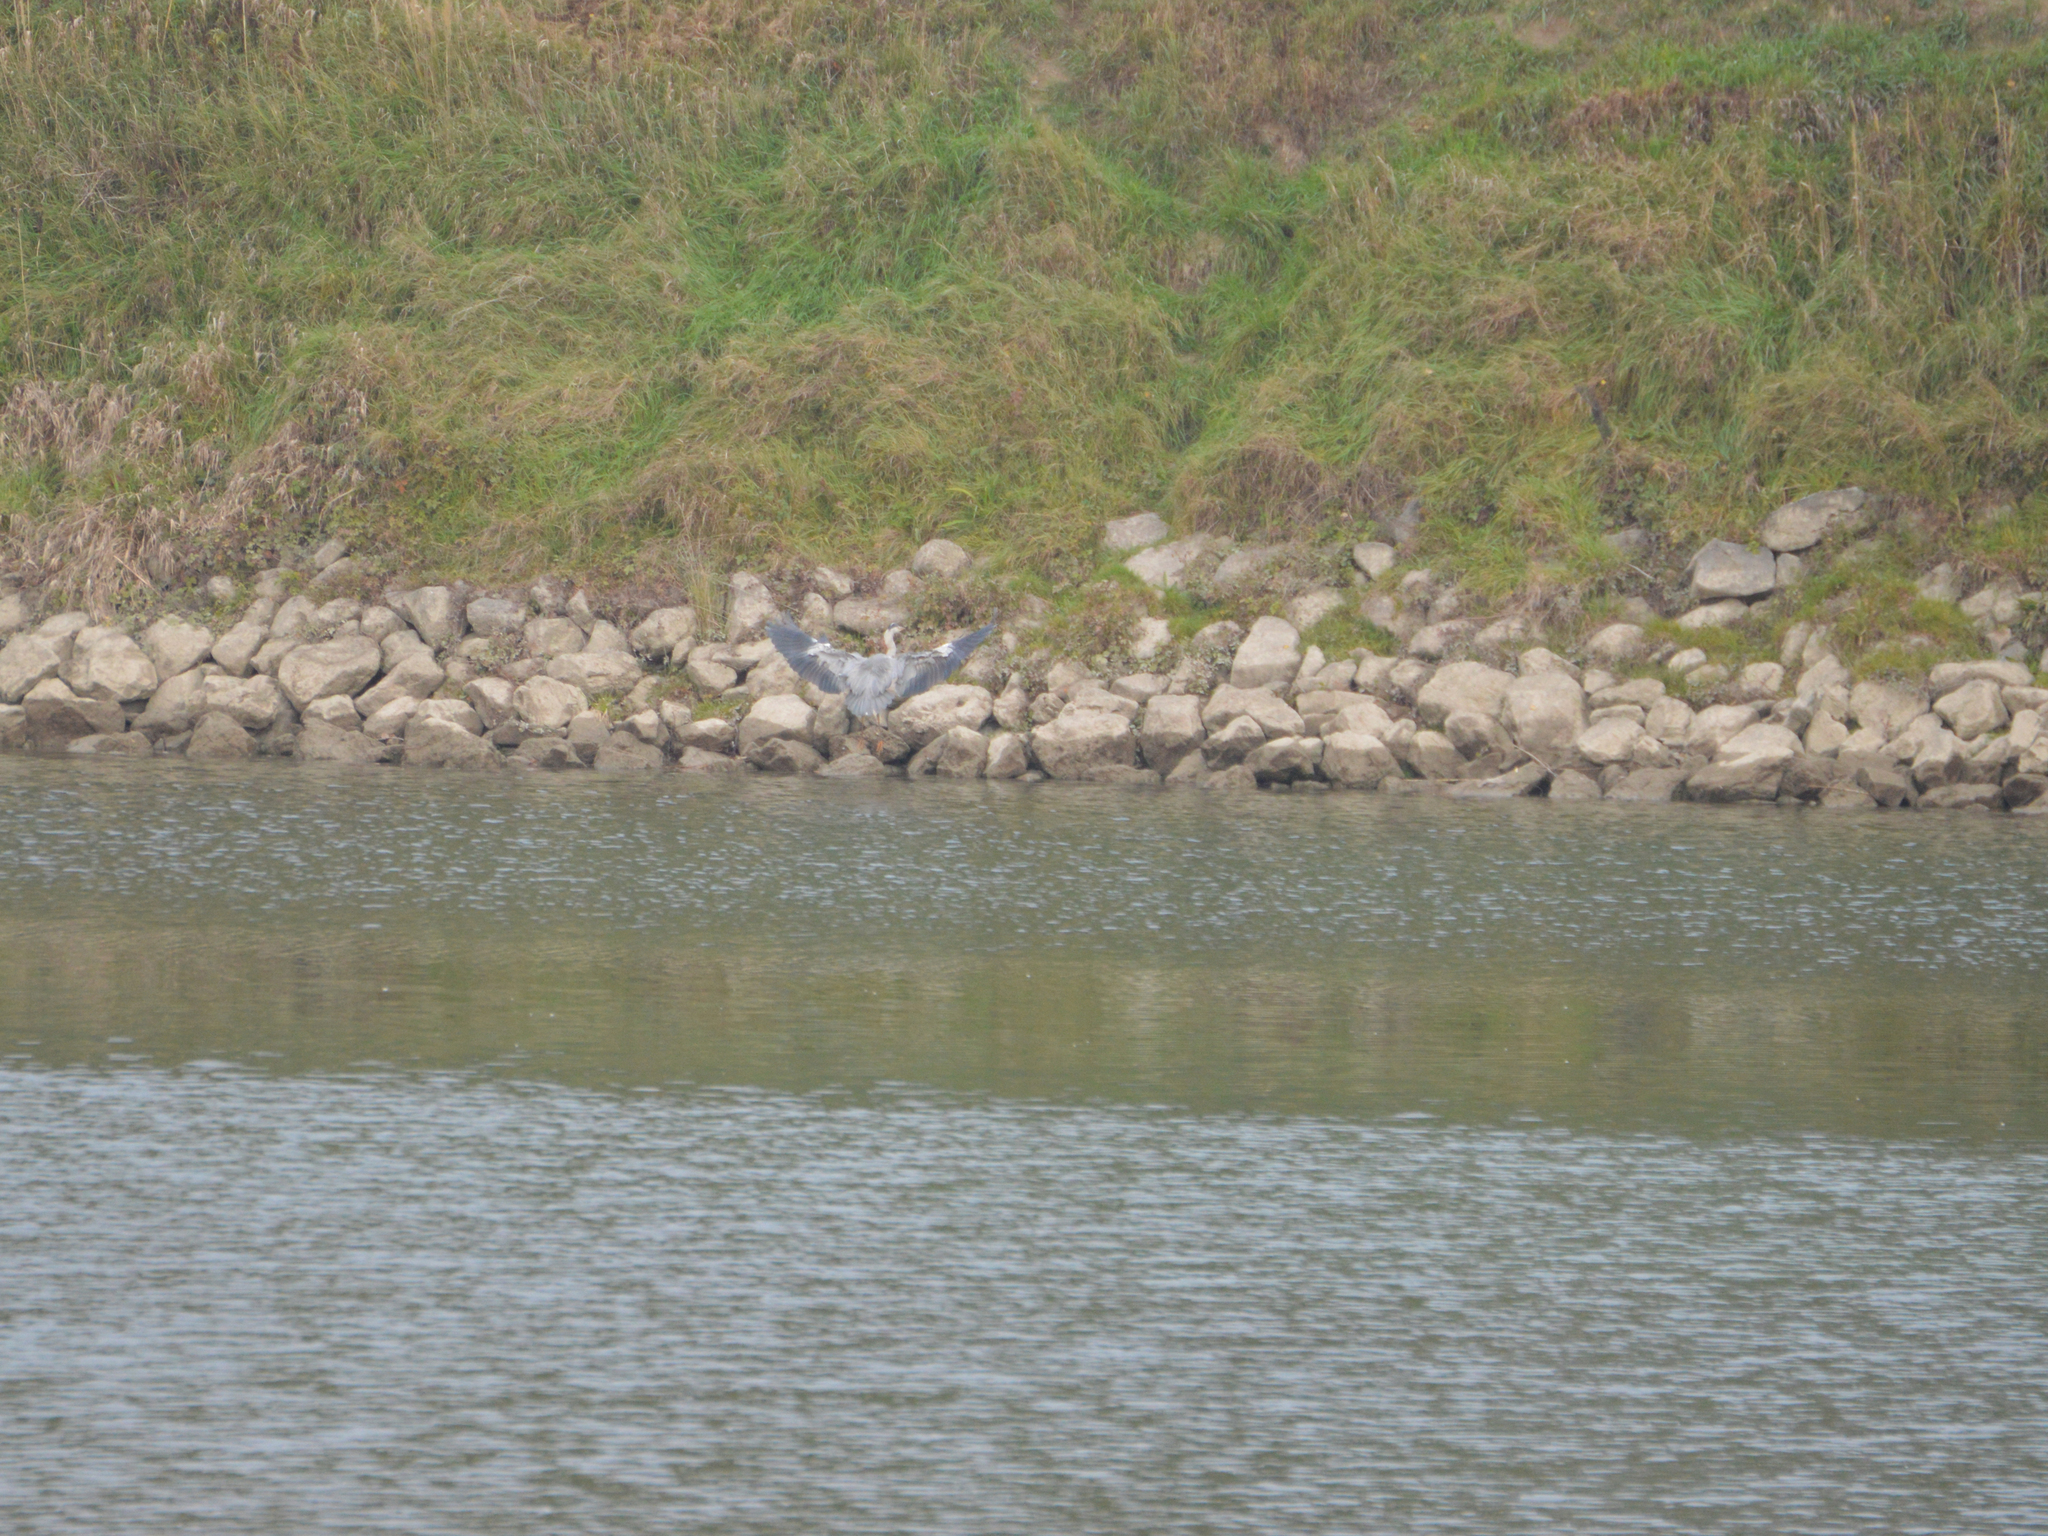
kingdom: Animalia
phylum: Chordata
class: Aves
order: Pelecaniformes
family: Ardeidae
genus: Ardea
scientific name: Ardea cinerea
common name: Grey heron
